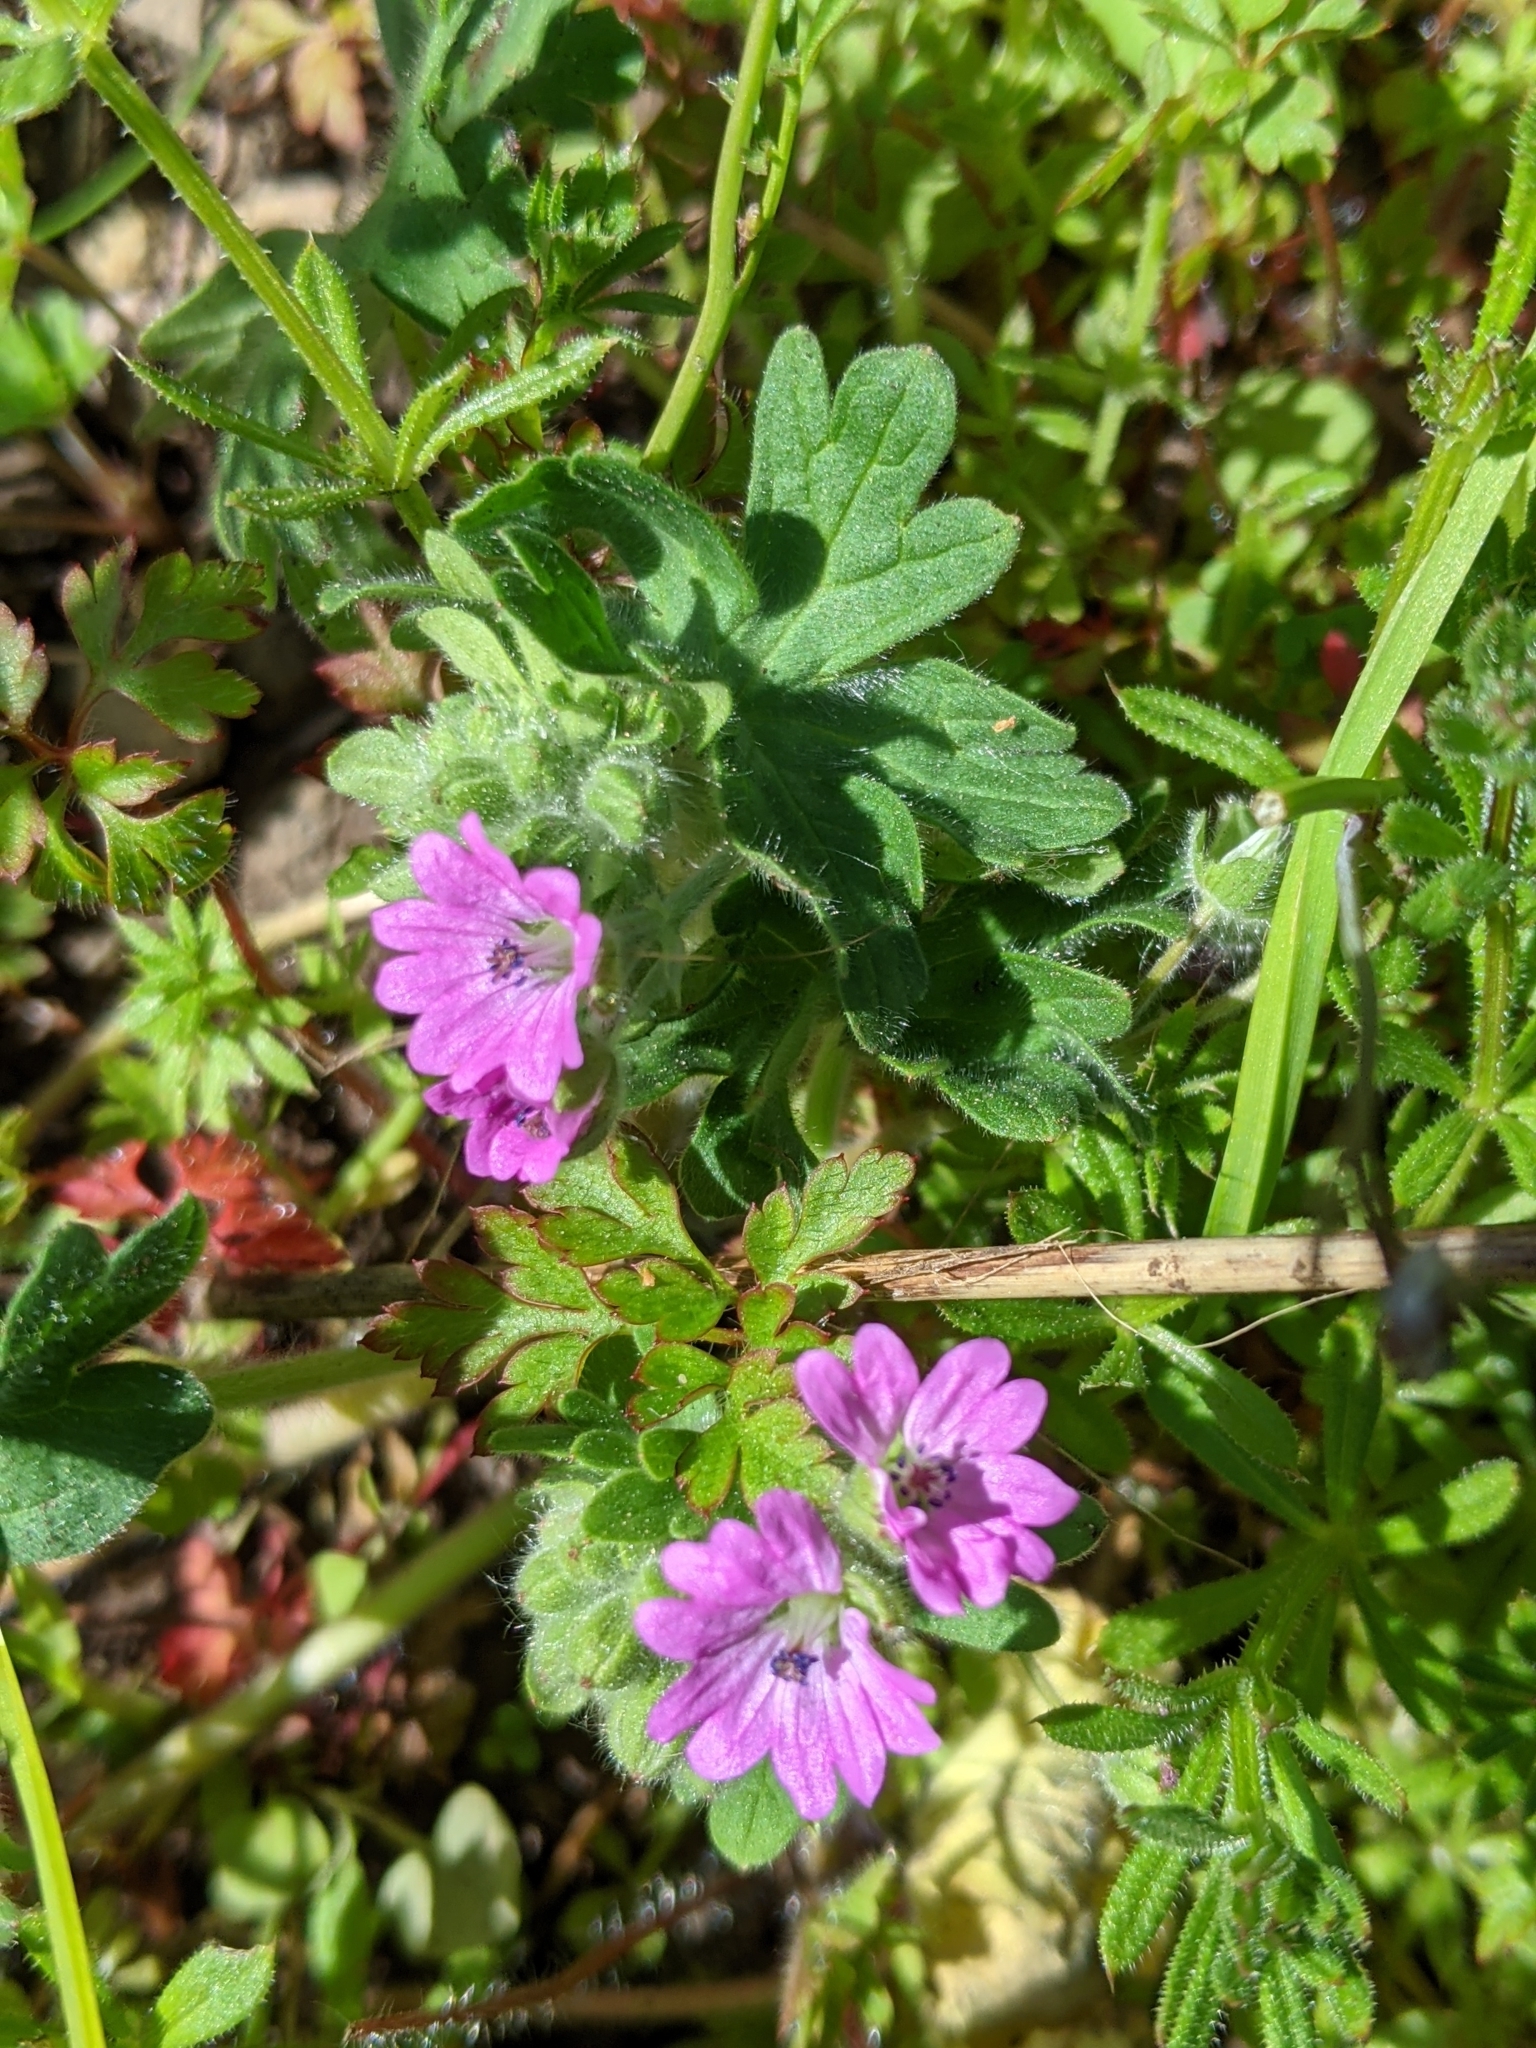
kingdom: Plantae
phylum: Tracheophyta
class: Magnoliopsida
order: Geraniales
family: Geraniaceae
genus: Geranium
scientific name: Geranium molle
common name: Dove's-foot crane's-bill
